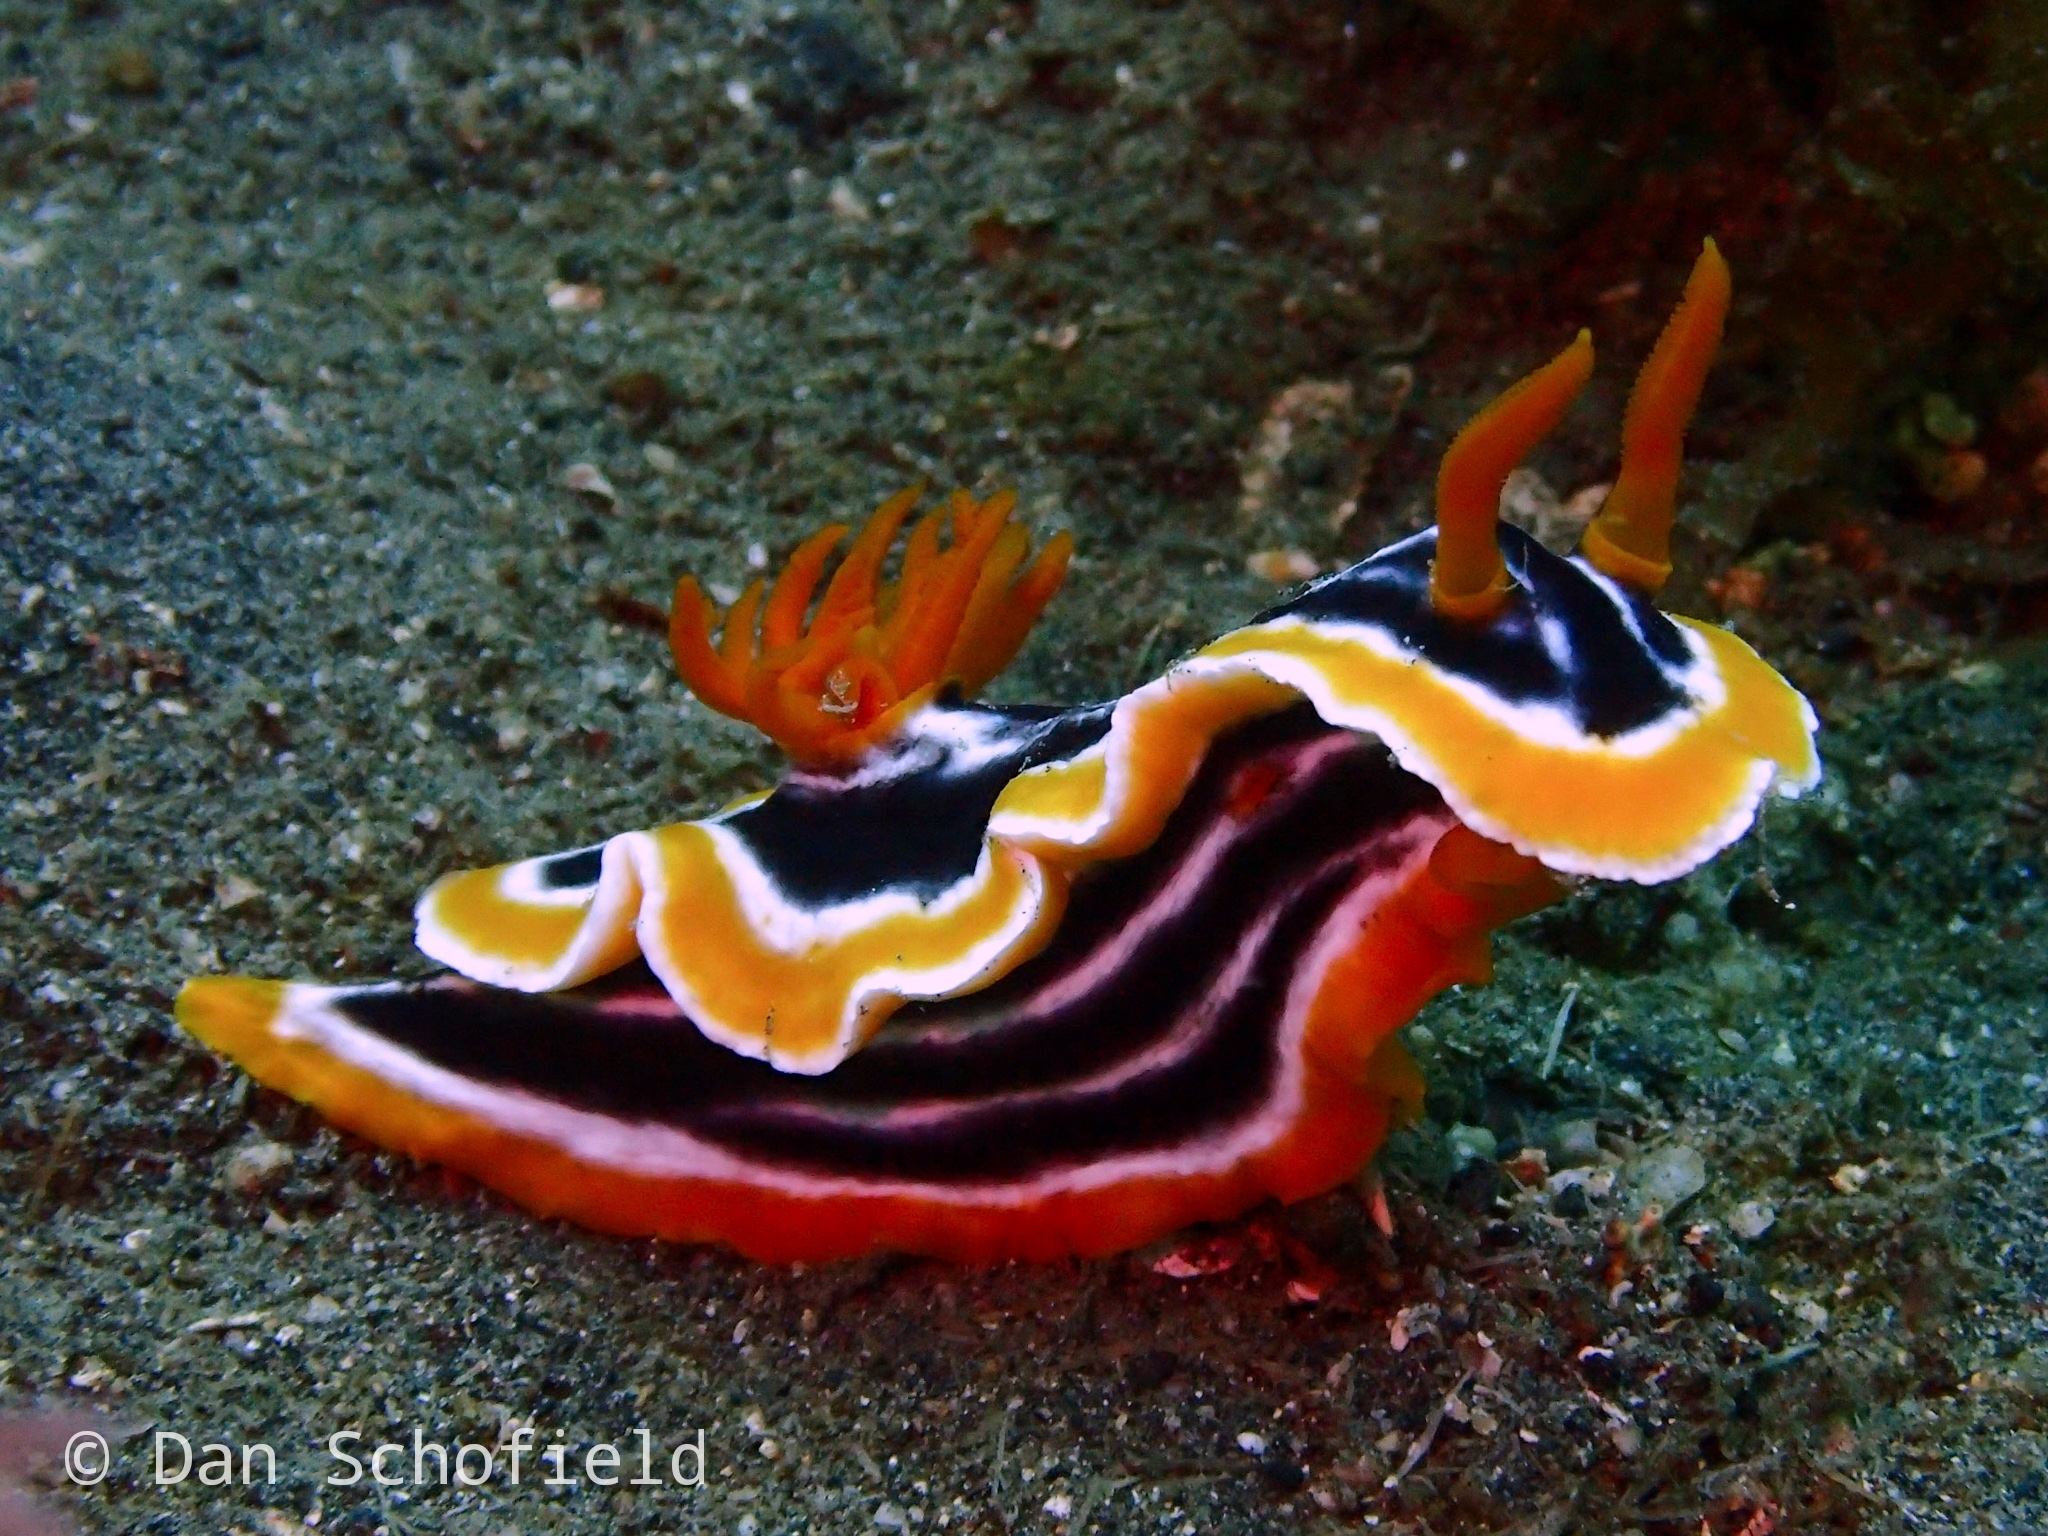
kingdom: Animalia
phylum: Mollusca
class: Gastropoda
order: Nudibranchia
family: Chromodorididae
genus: Chromodoris
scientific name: Chromodoris magnifica
